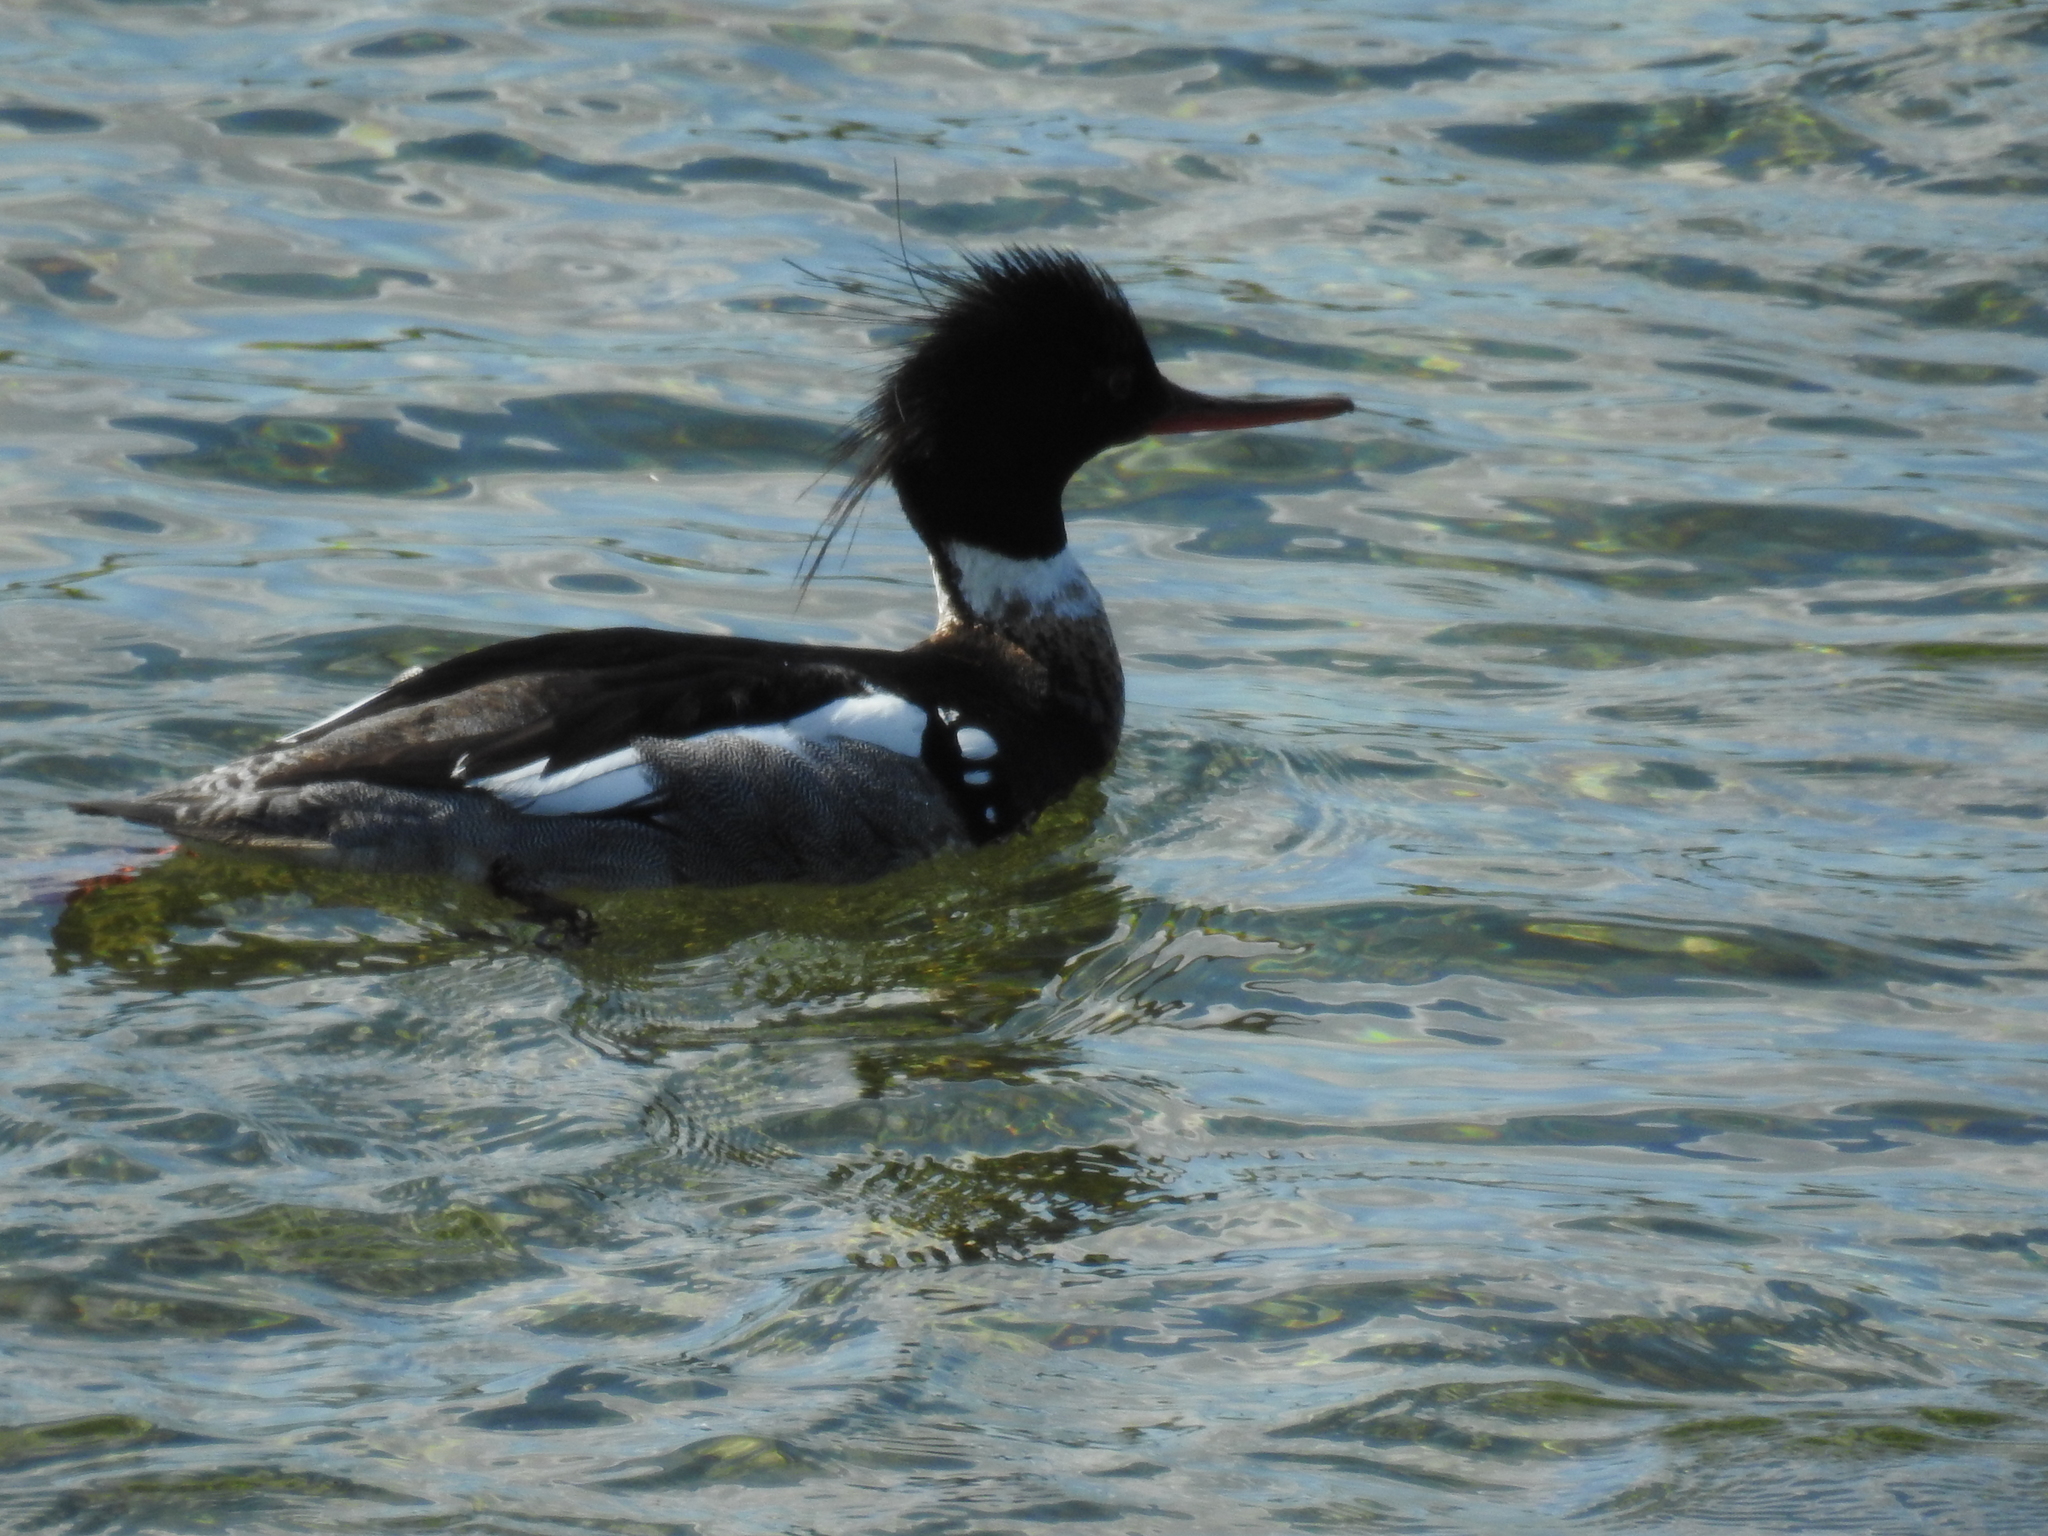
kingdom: Animalia
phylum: Chordata
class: Aves
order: Anseriformes
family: Anatidae
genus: Mergus
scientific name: Mergus serrator
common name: Red-breasted merganser
